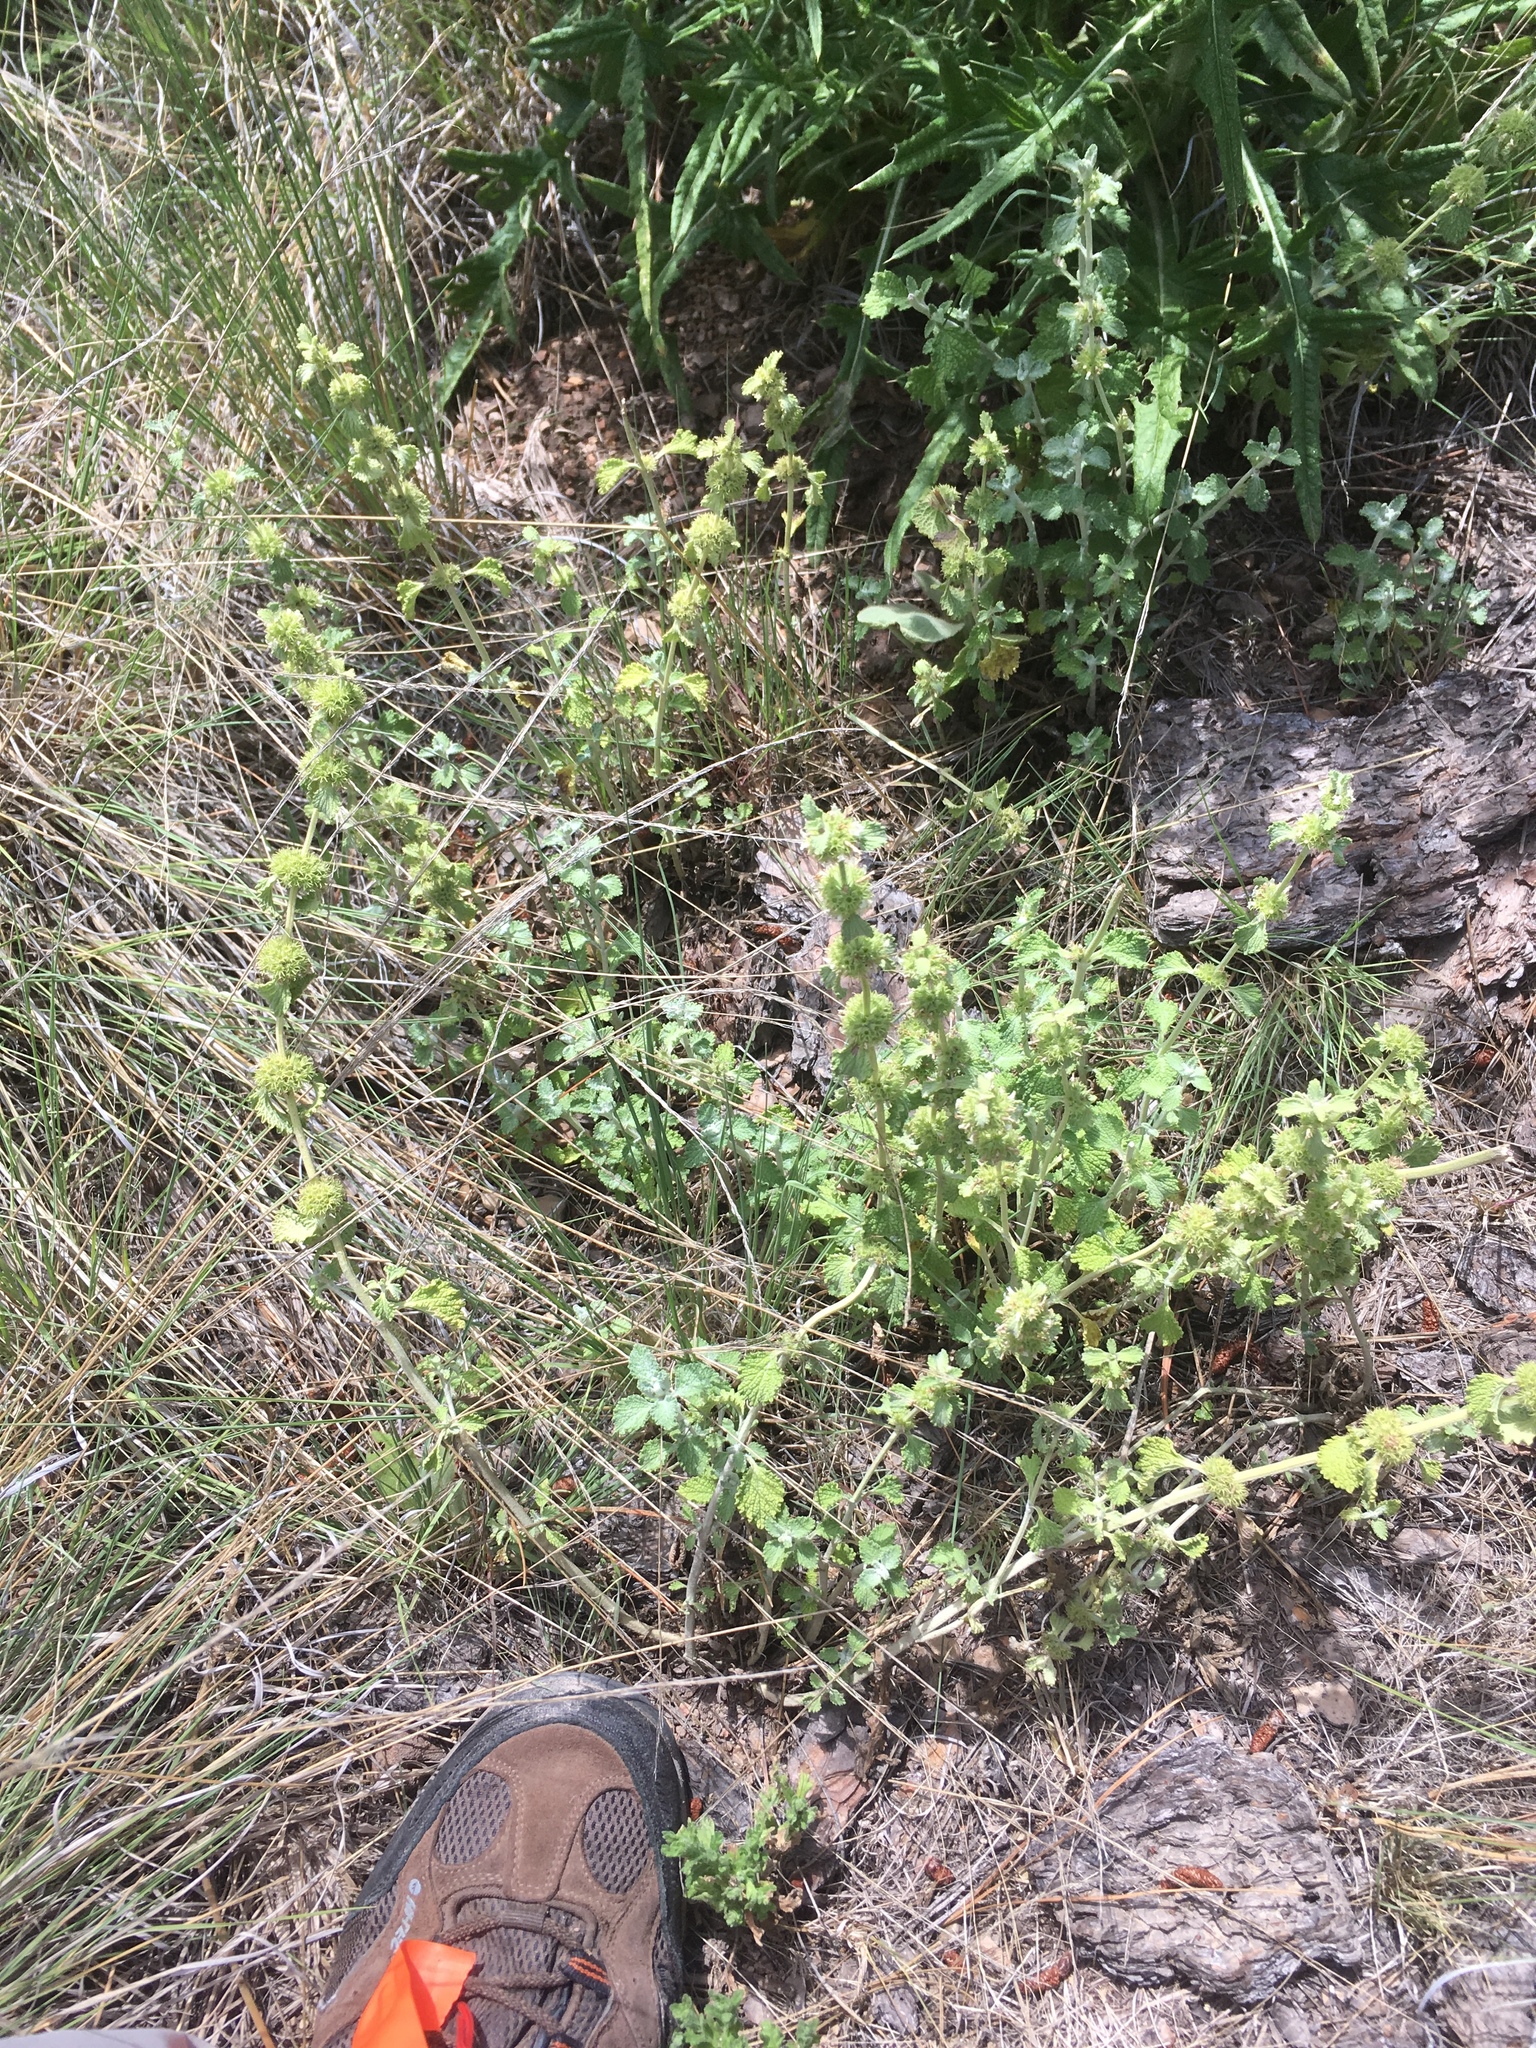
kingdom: Plantae
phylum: Tracheophyta
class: Magnoliopsida
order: Lamiales
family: Lamiaceae
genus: Marrubium
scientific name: Marrubium vulgare
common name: Horehound
